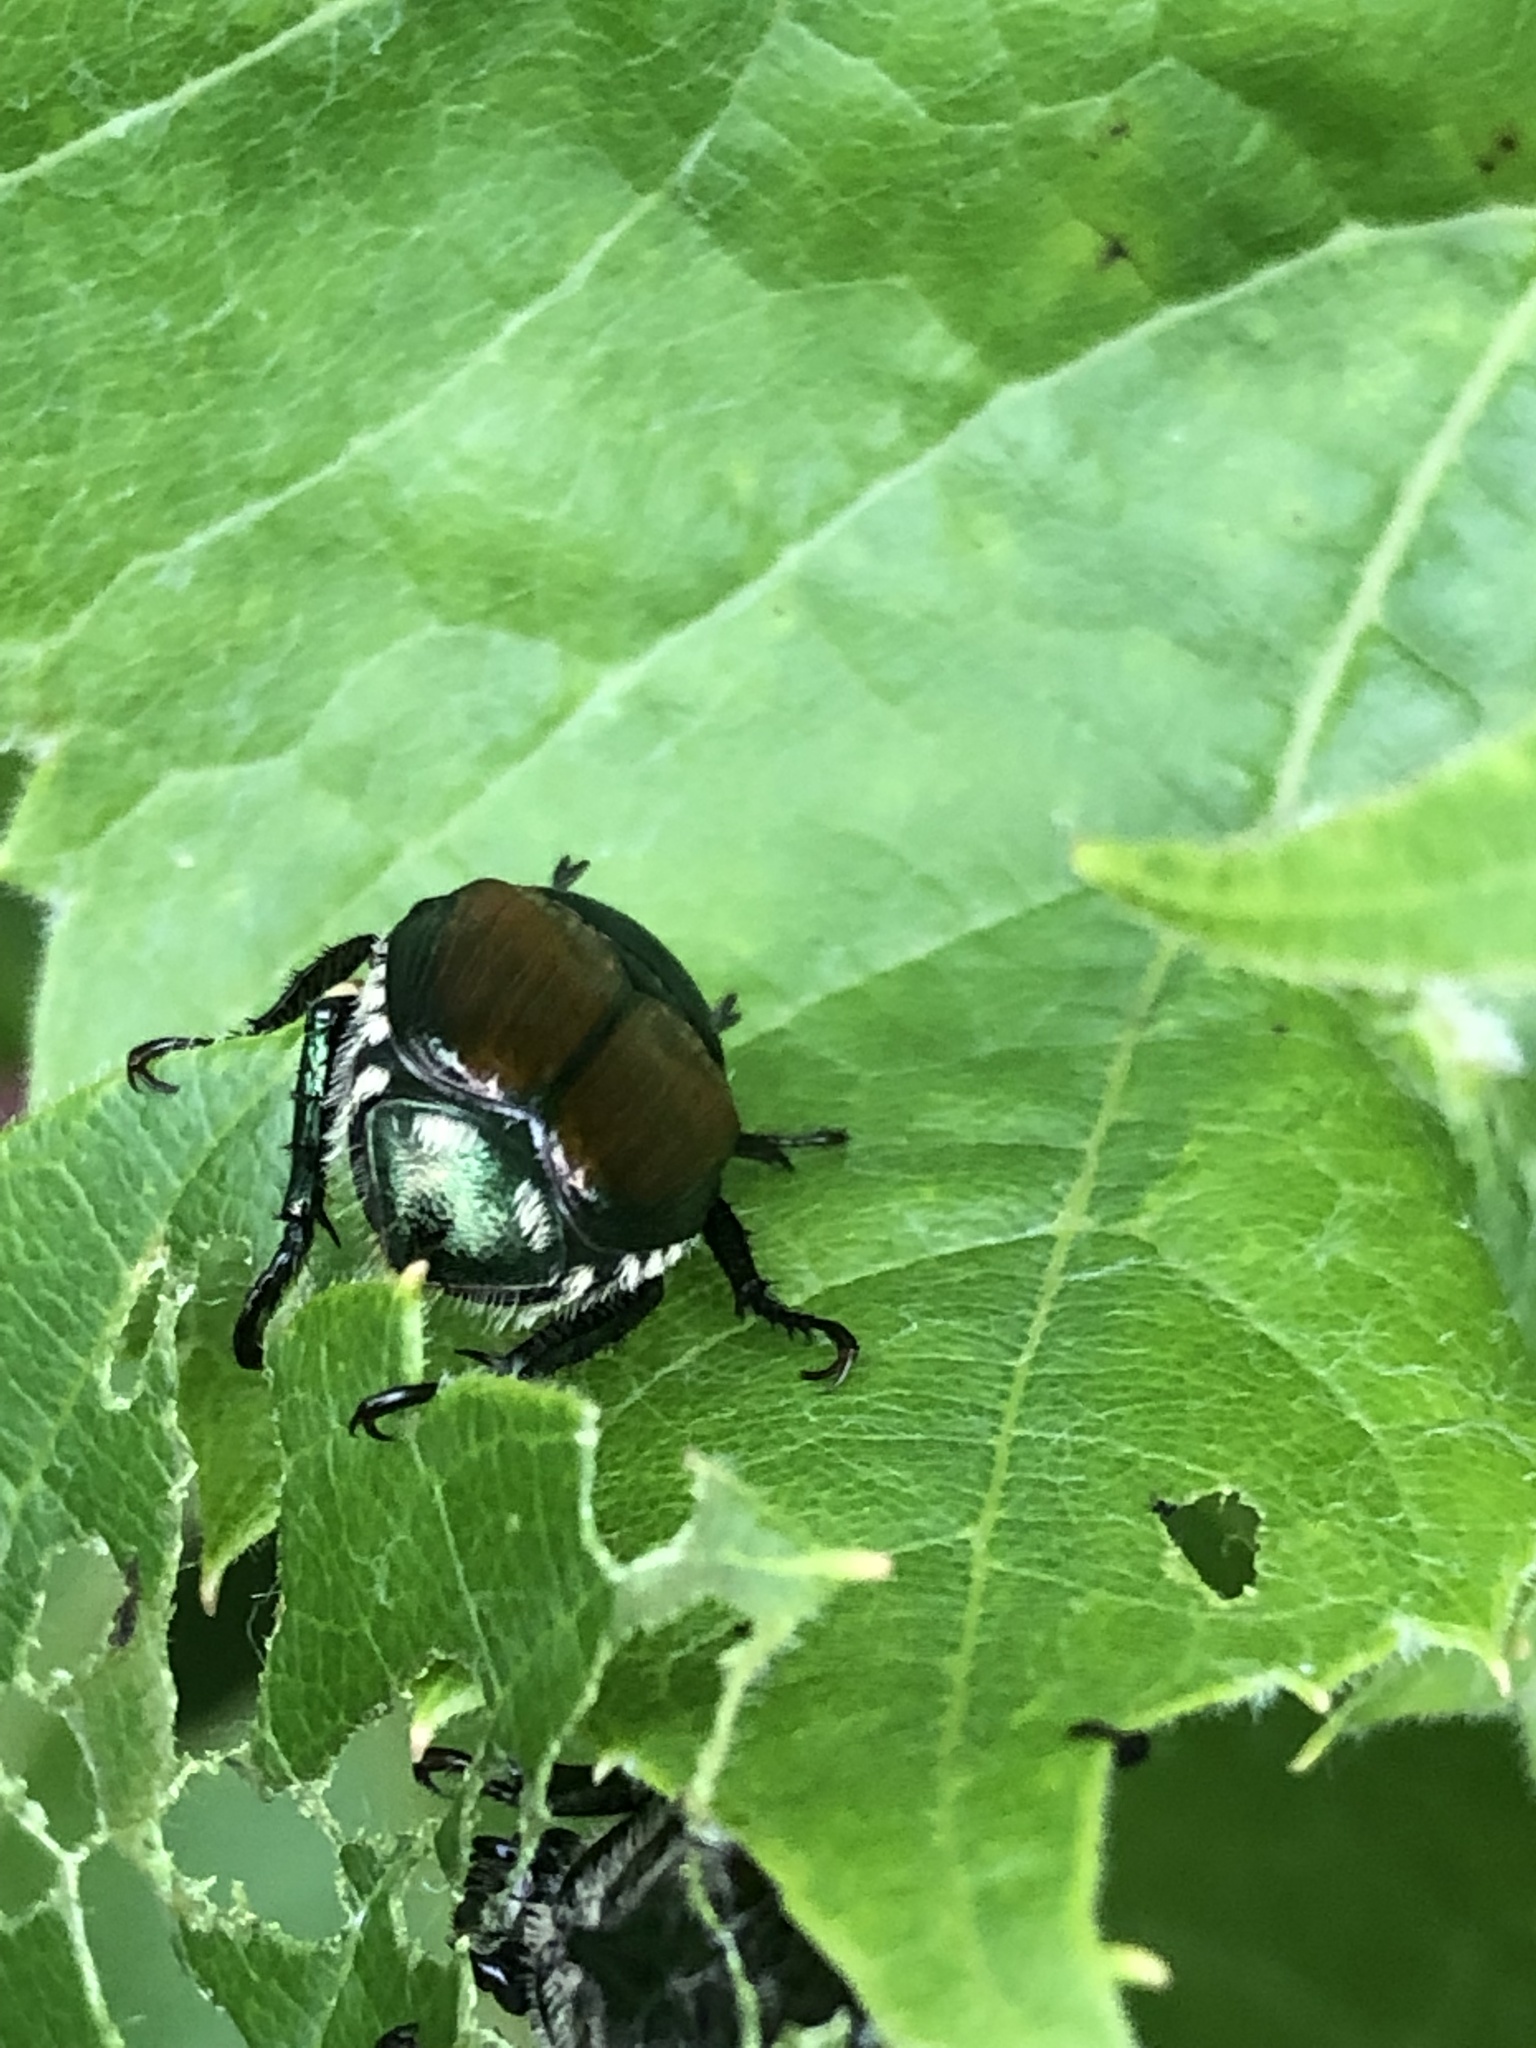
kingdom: Animalia
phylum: Arthropoda
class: Insecta
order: Coleoptera
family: Scarabaeidae
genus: Popillia
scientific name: Popillia japonica
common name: Japanese beetle
